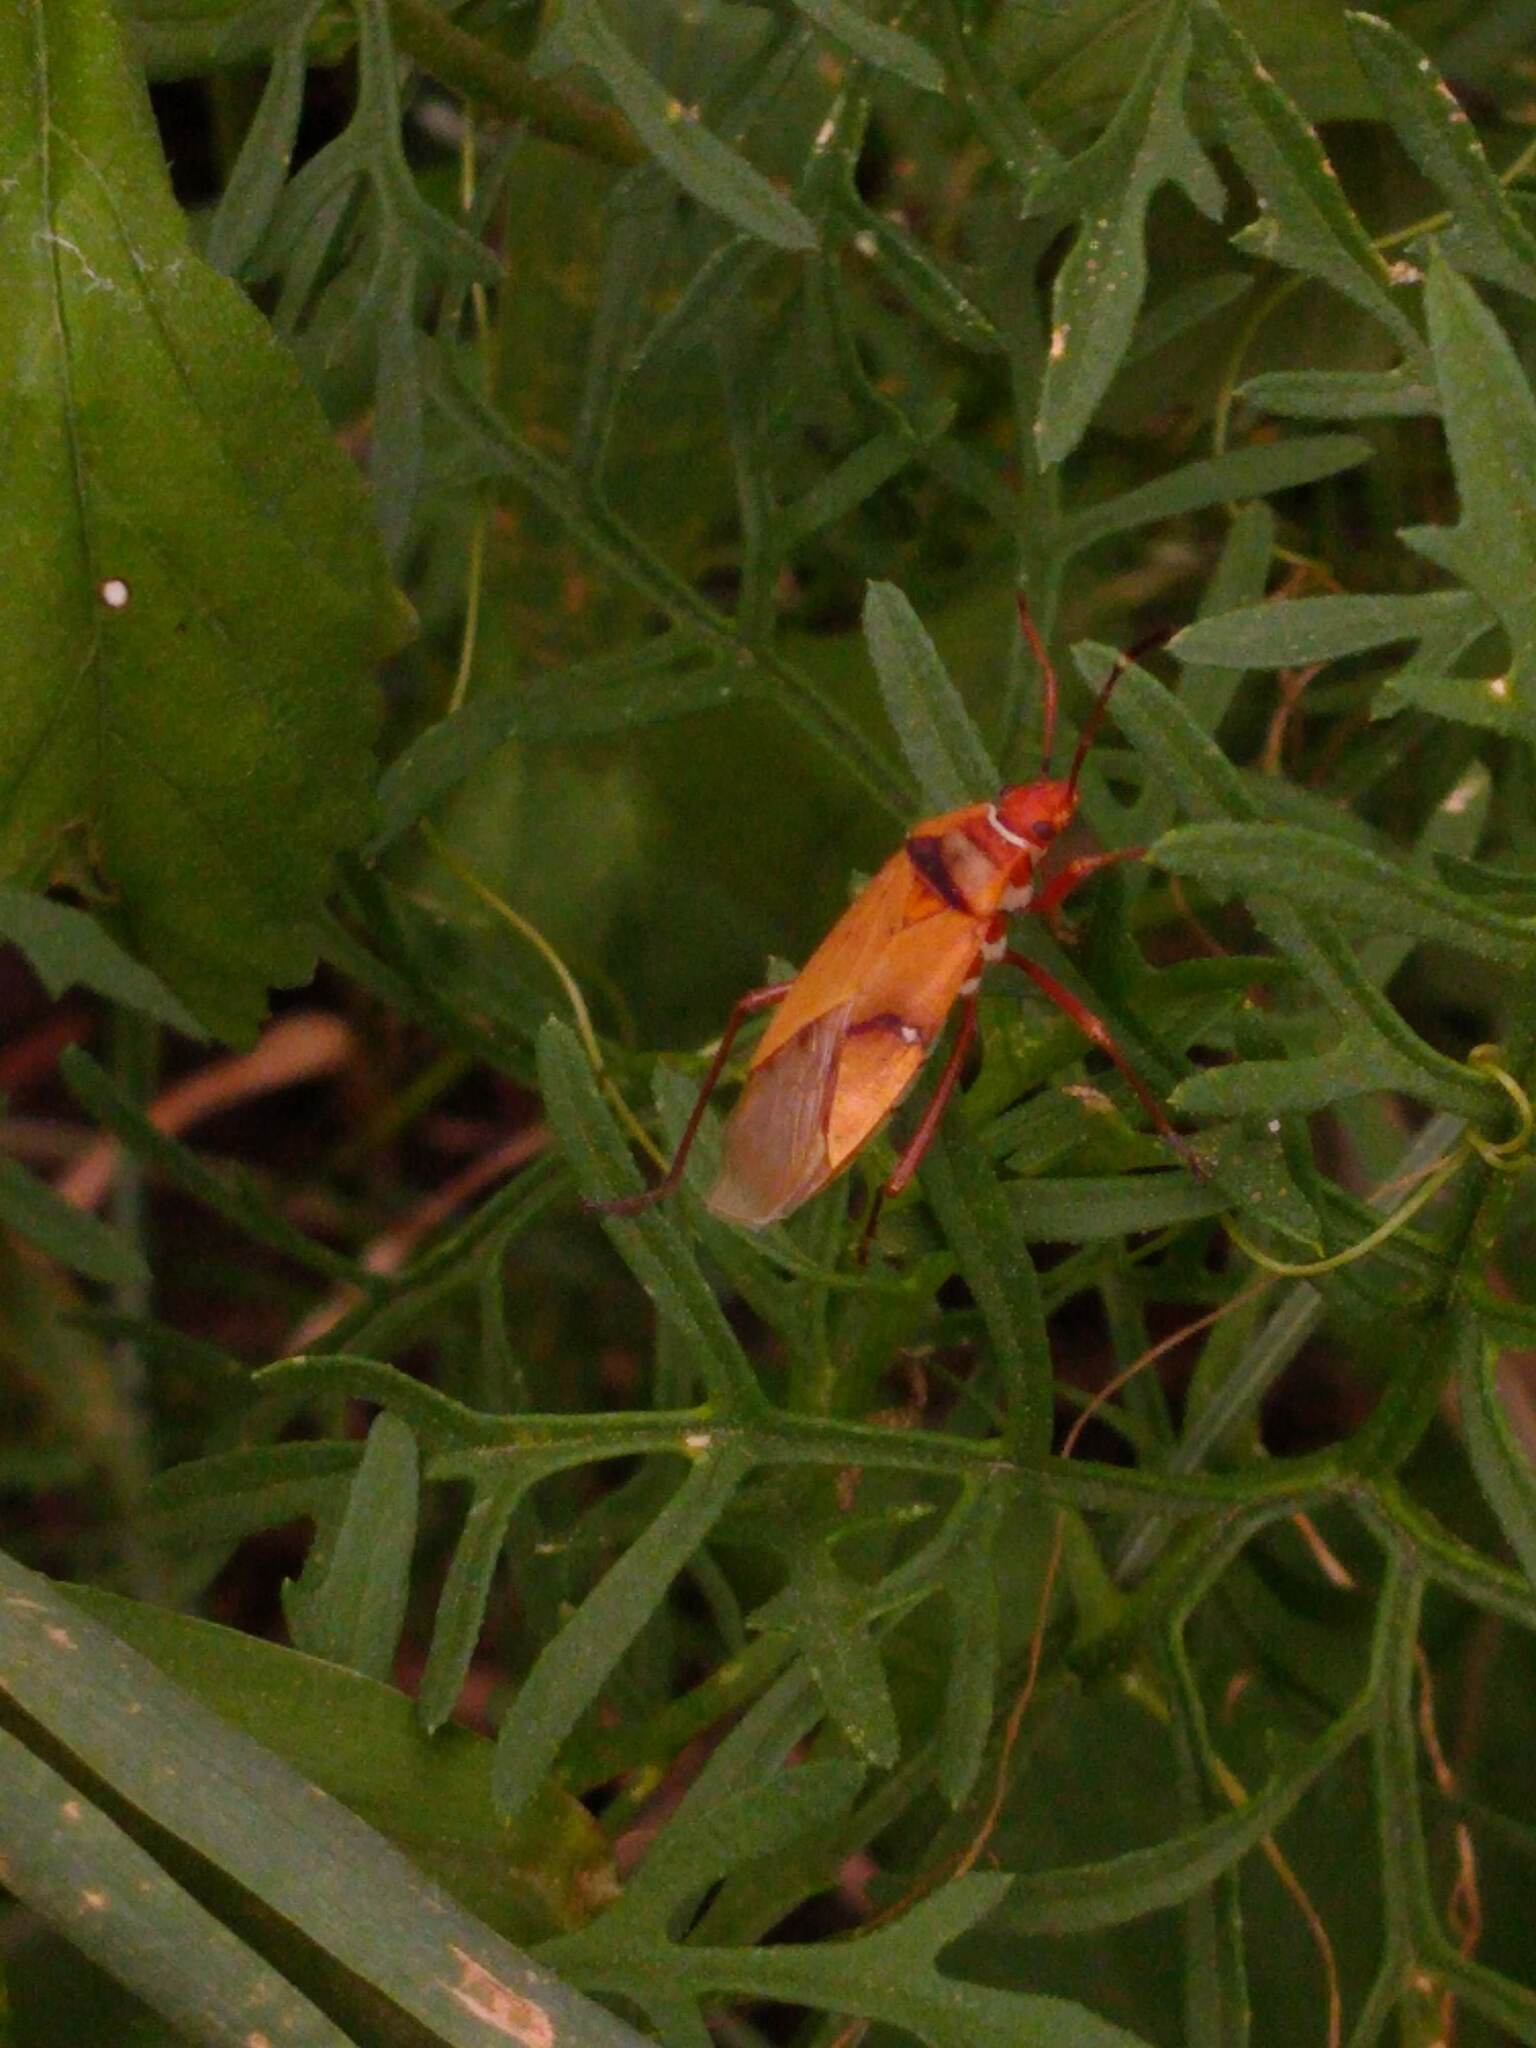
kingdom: Animalia
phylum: Arthropoda
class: Insecta
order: Hemiptera
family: Pyrrhocoridae
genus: Dysdercus
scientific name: Dysdercus
